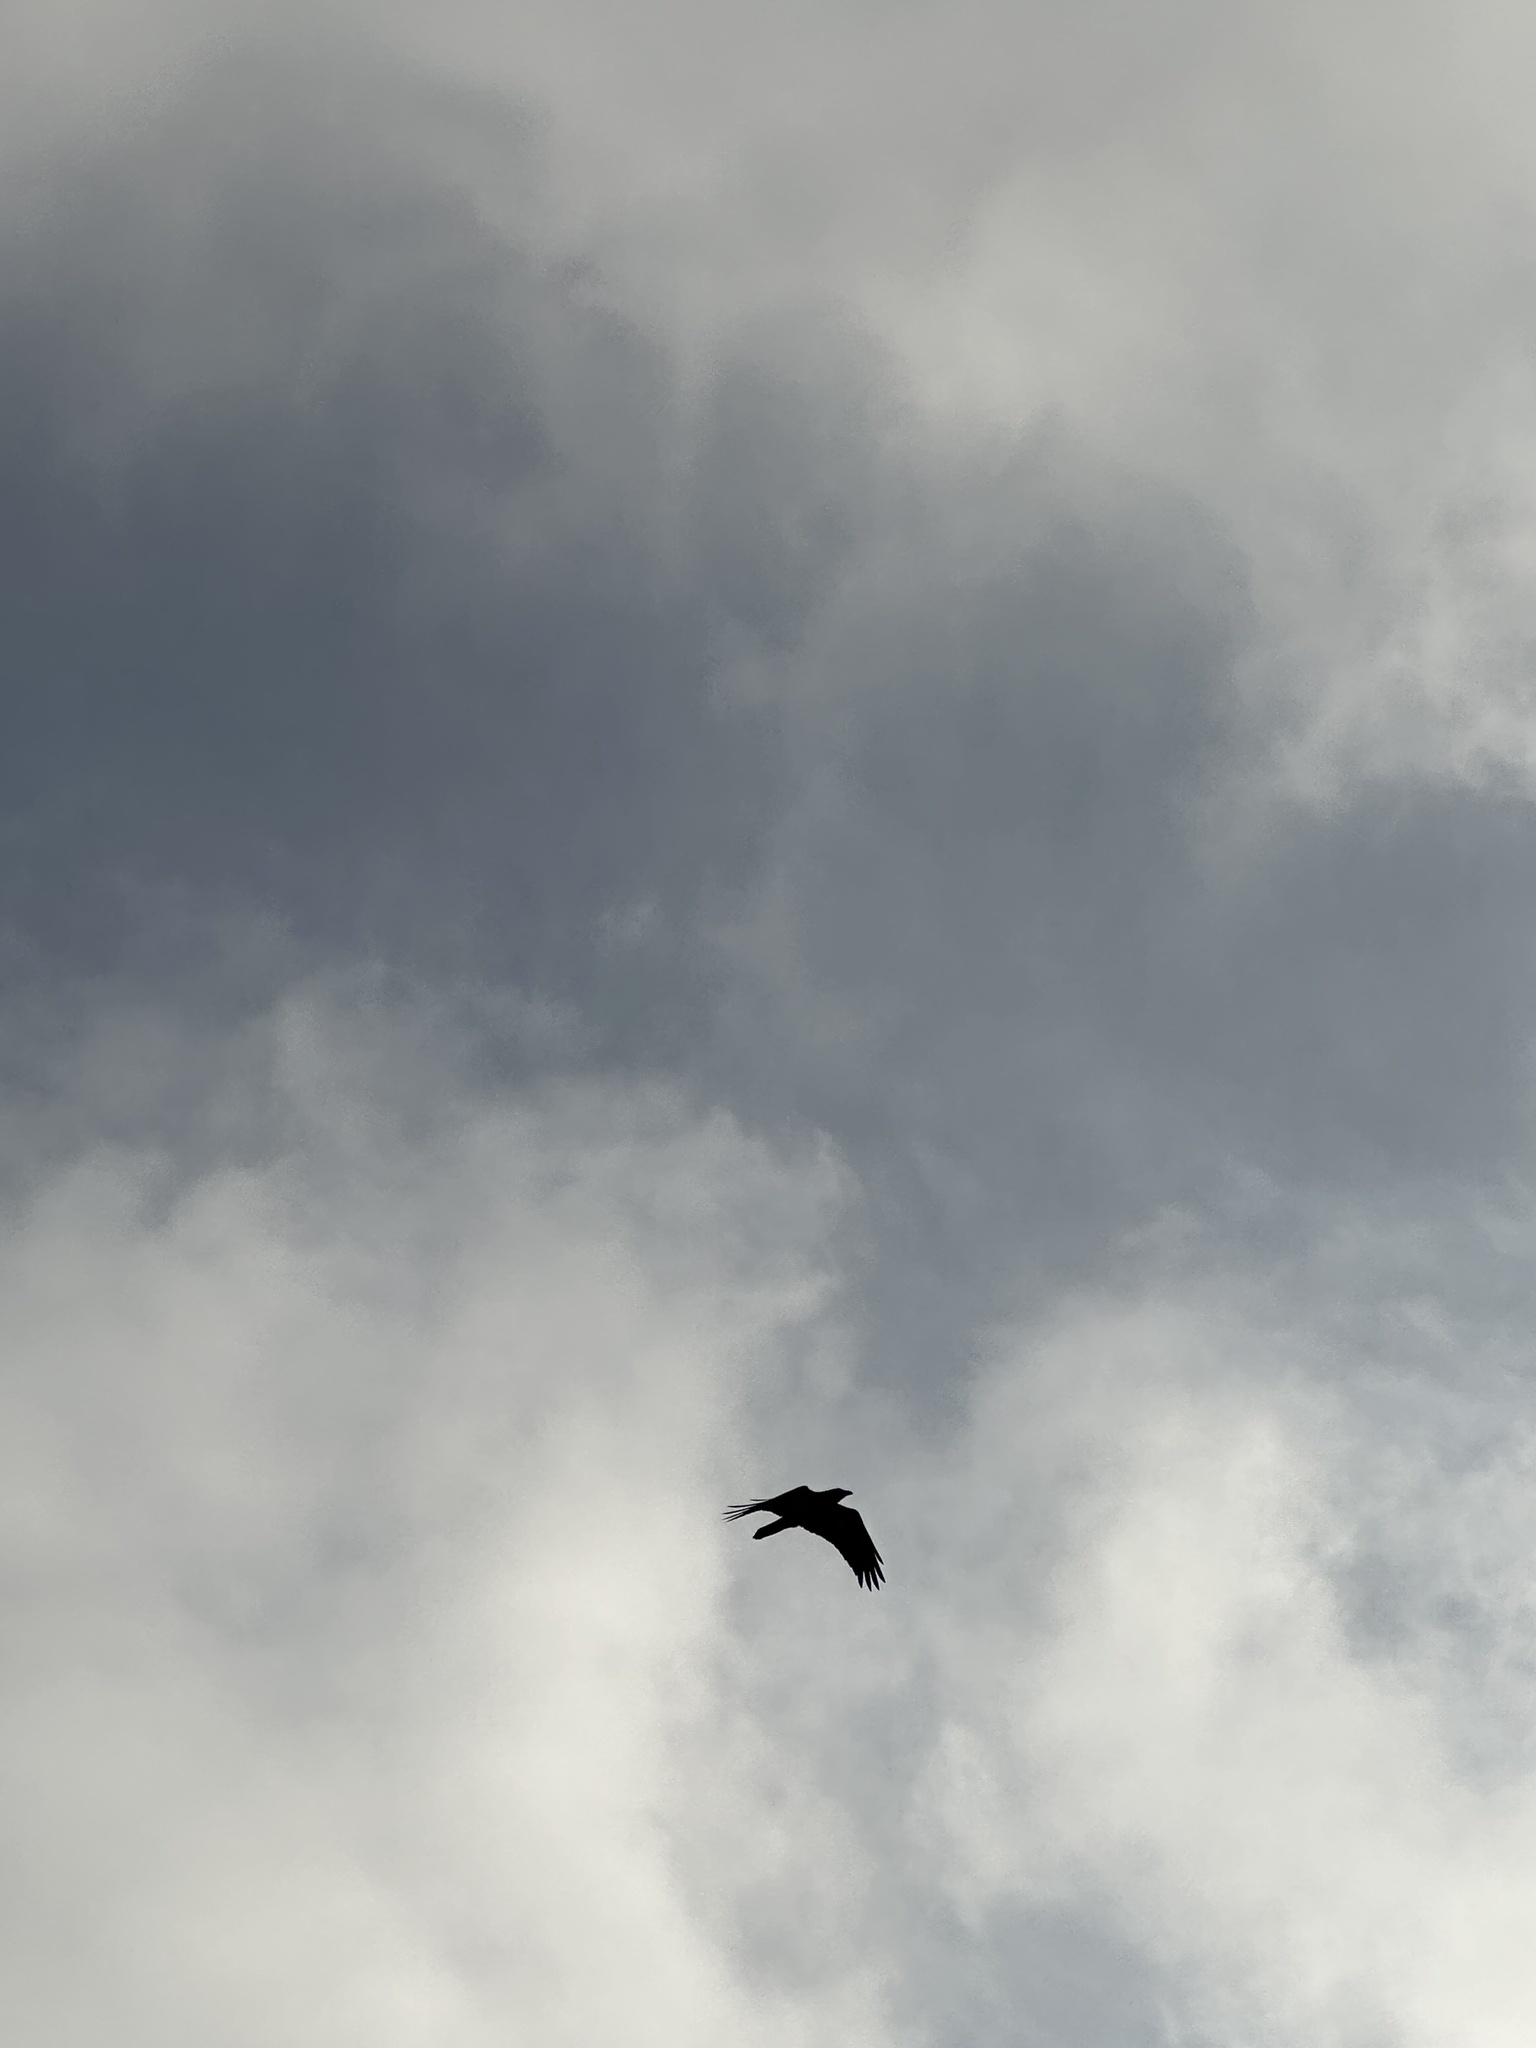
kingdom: Animalia
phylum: Chordata
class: Aves
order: Passeriformes
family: Corvidae
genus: Corvus
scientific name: Corvus corax
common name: Common raven
